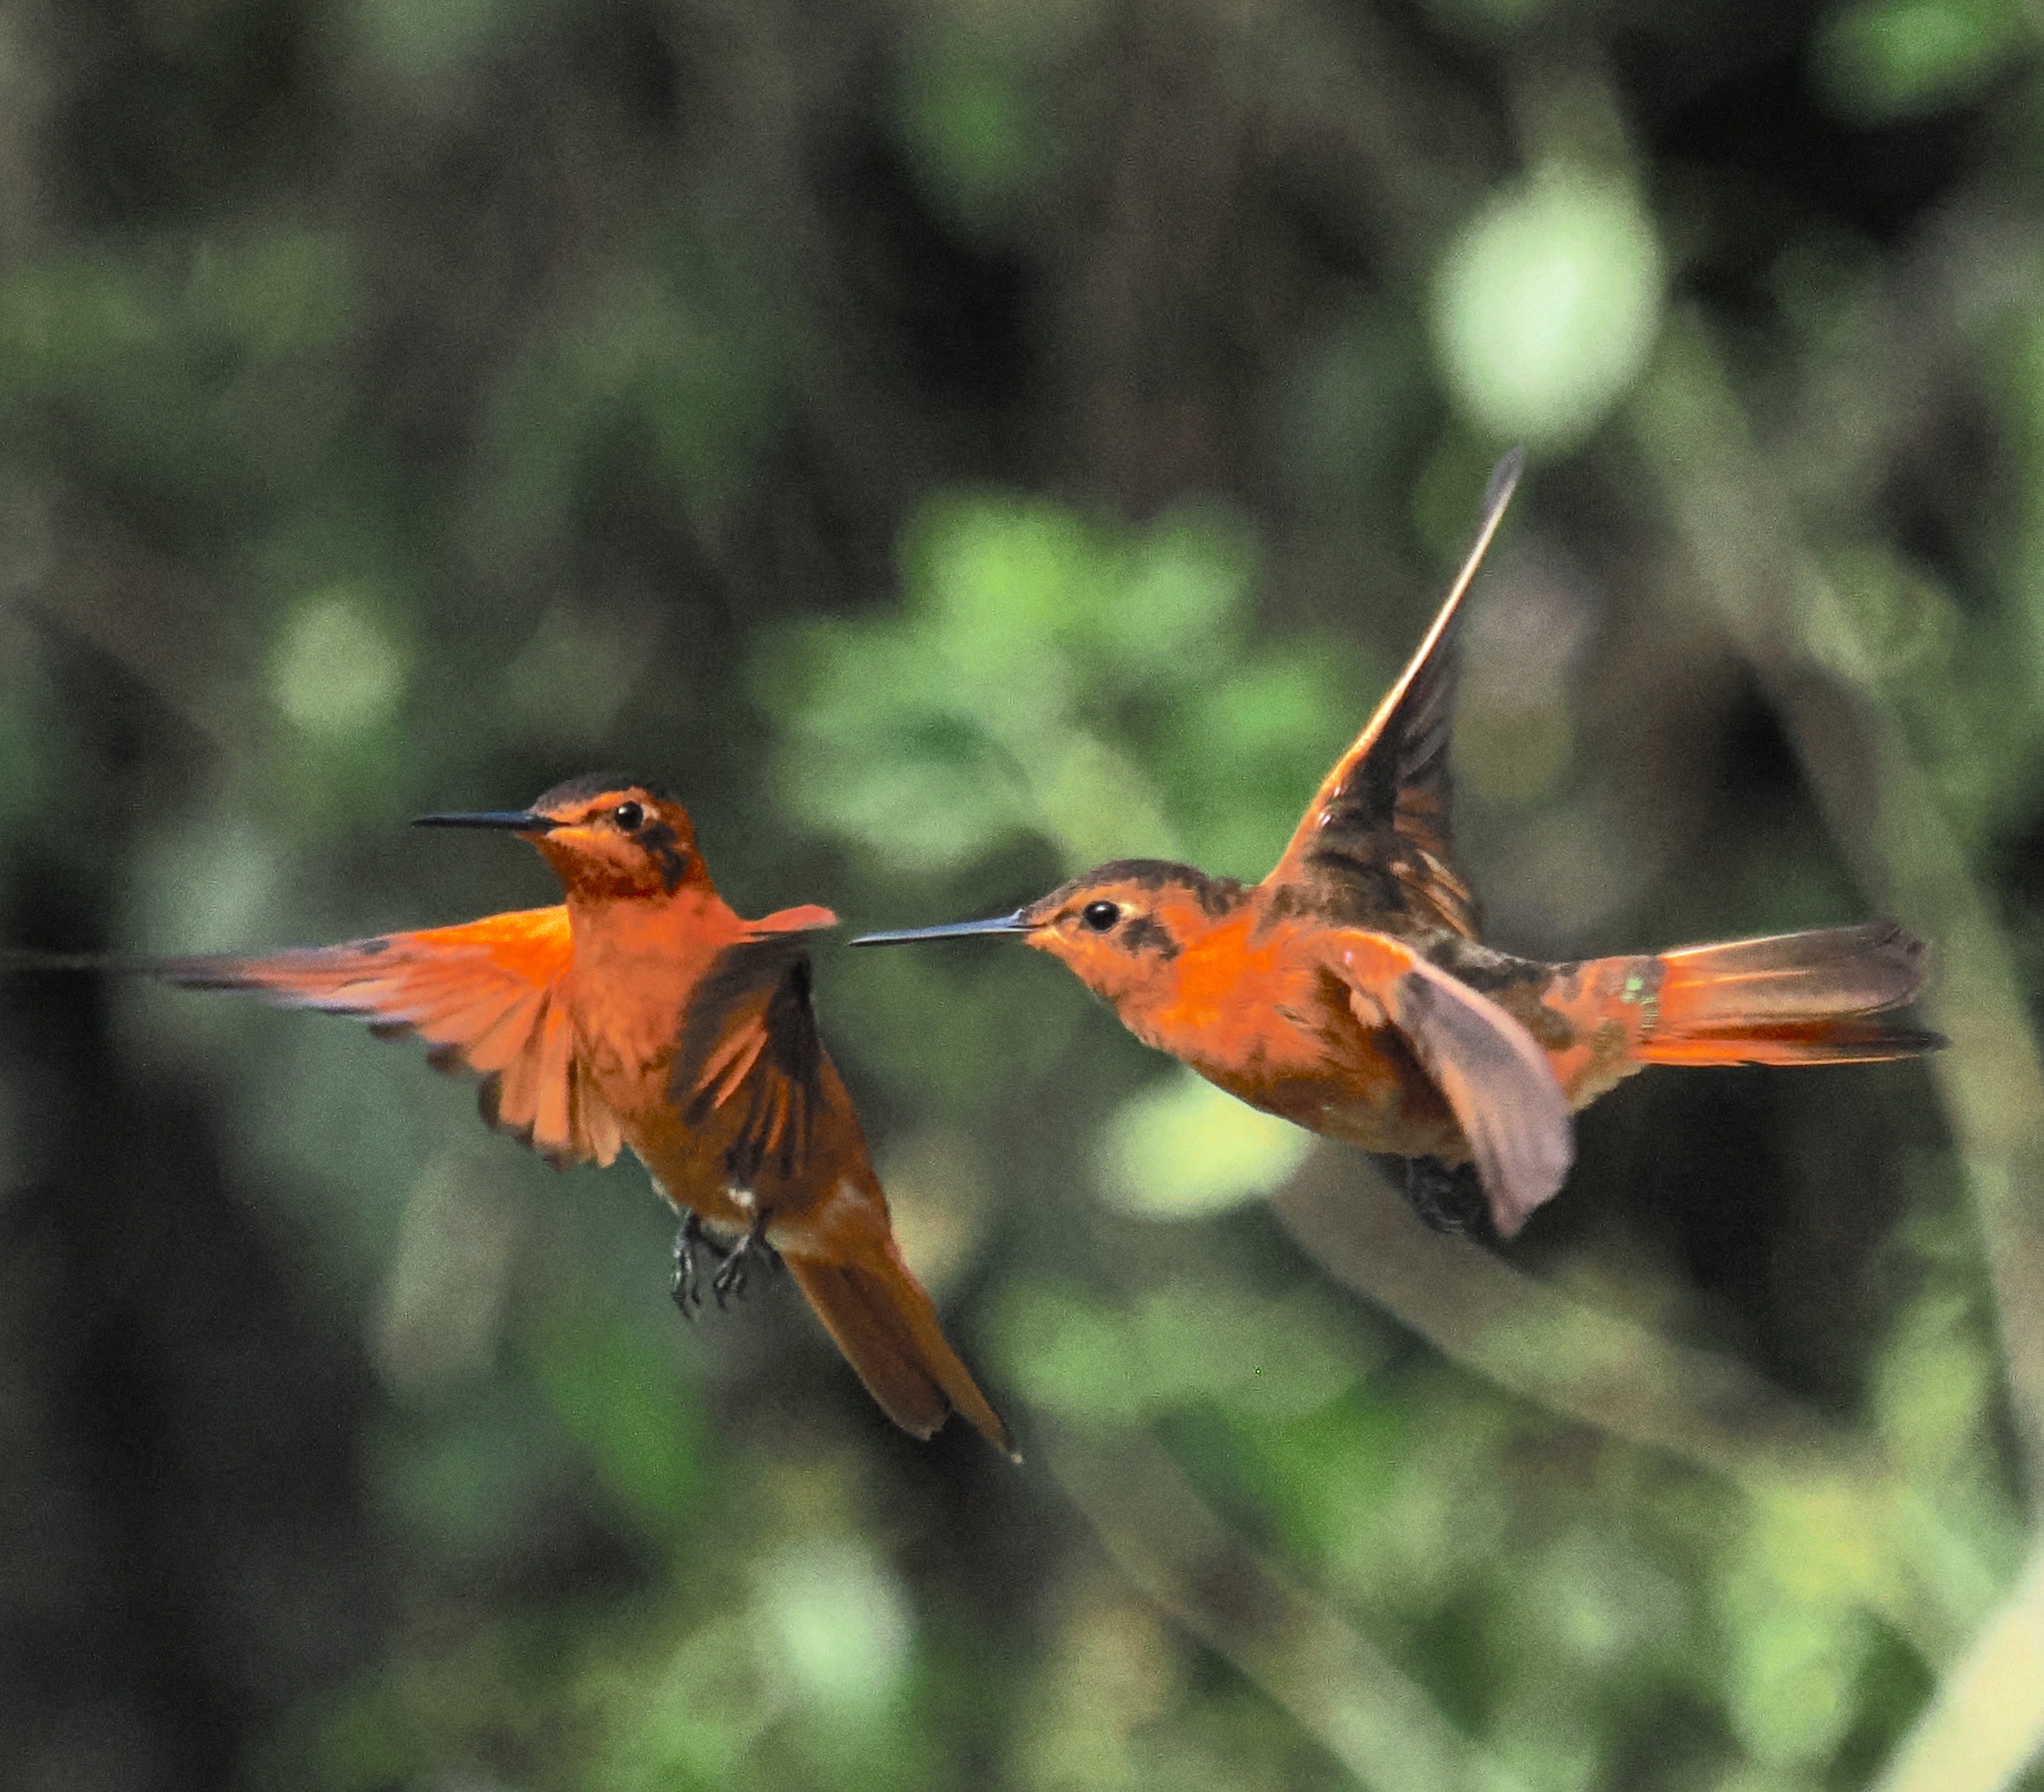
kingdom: Animalia
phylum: Chordata
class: Aves
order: Apodiformes
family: Trochilidae
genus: Aglaeactis
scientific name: Aglaeactis cupripennis
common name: Shining sunbeam
